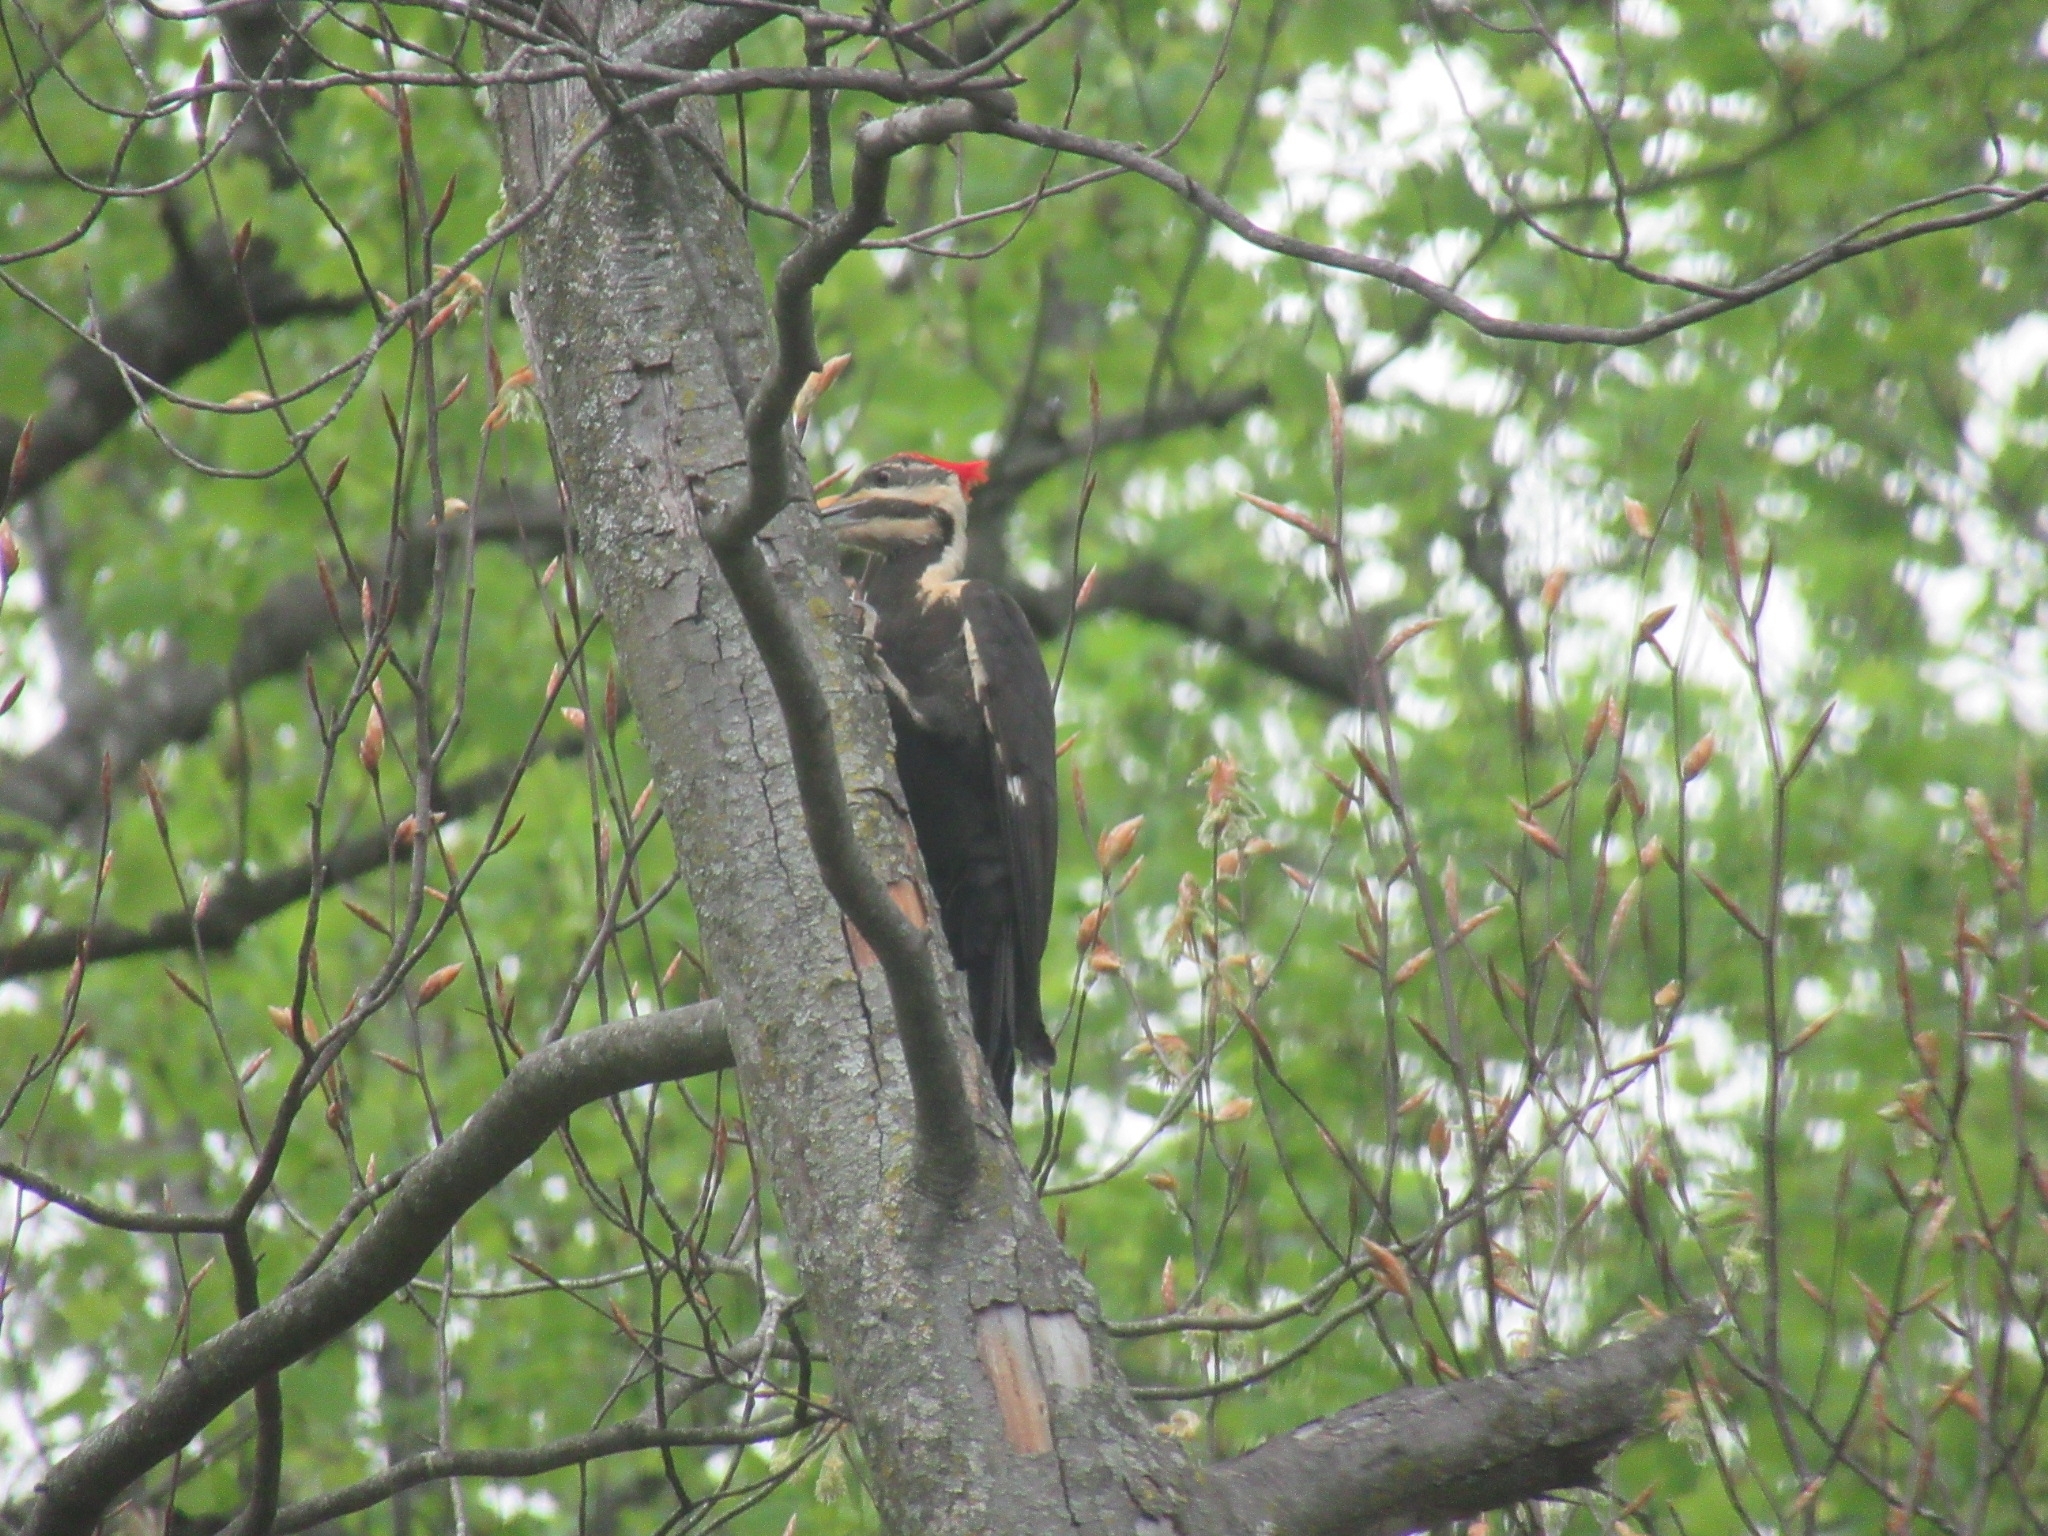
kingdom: Animalia
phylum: Chordata
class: Aves
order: Piciformes
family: Picidae
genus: Dryocopus
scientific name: Dryocopus pileatus
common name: Pileated woodpecker
